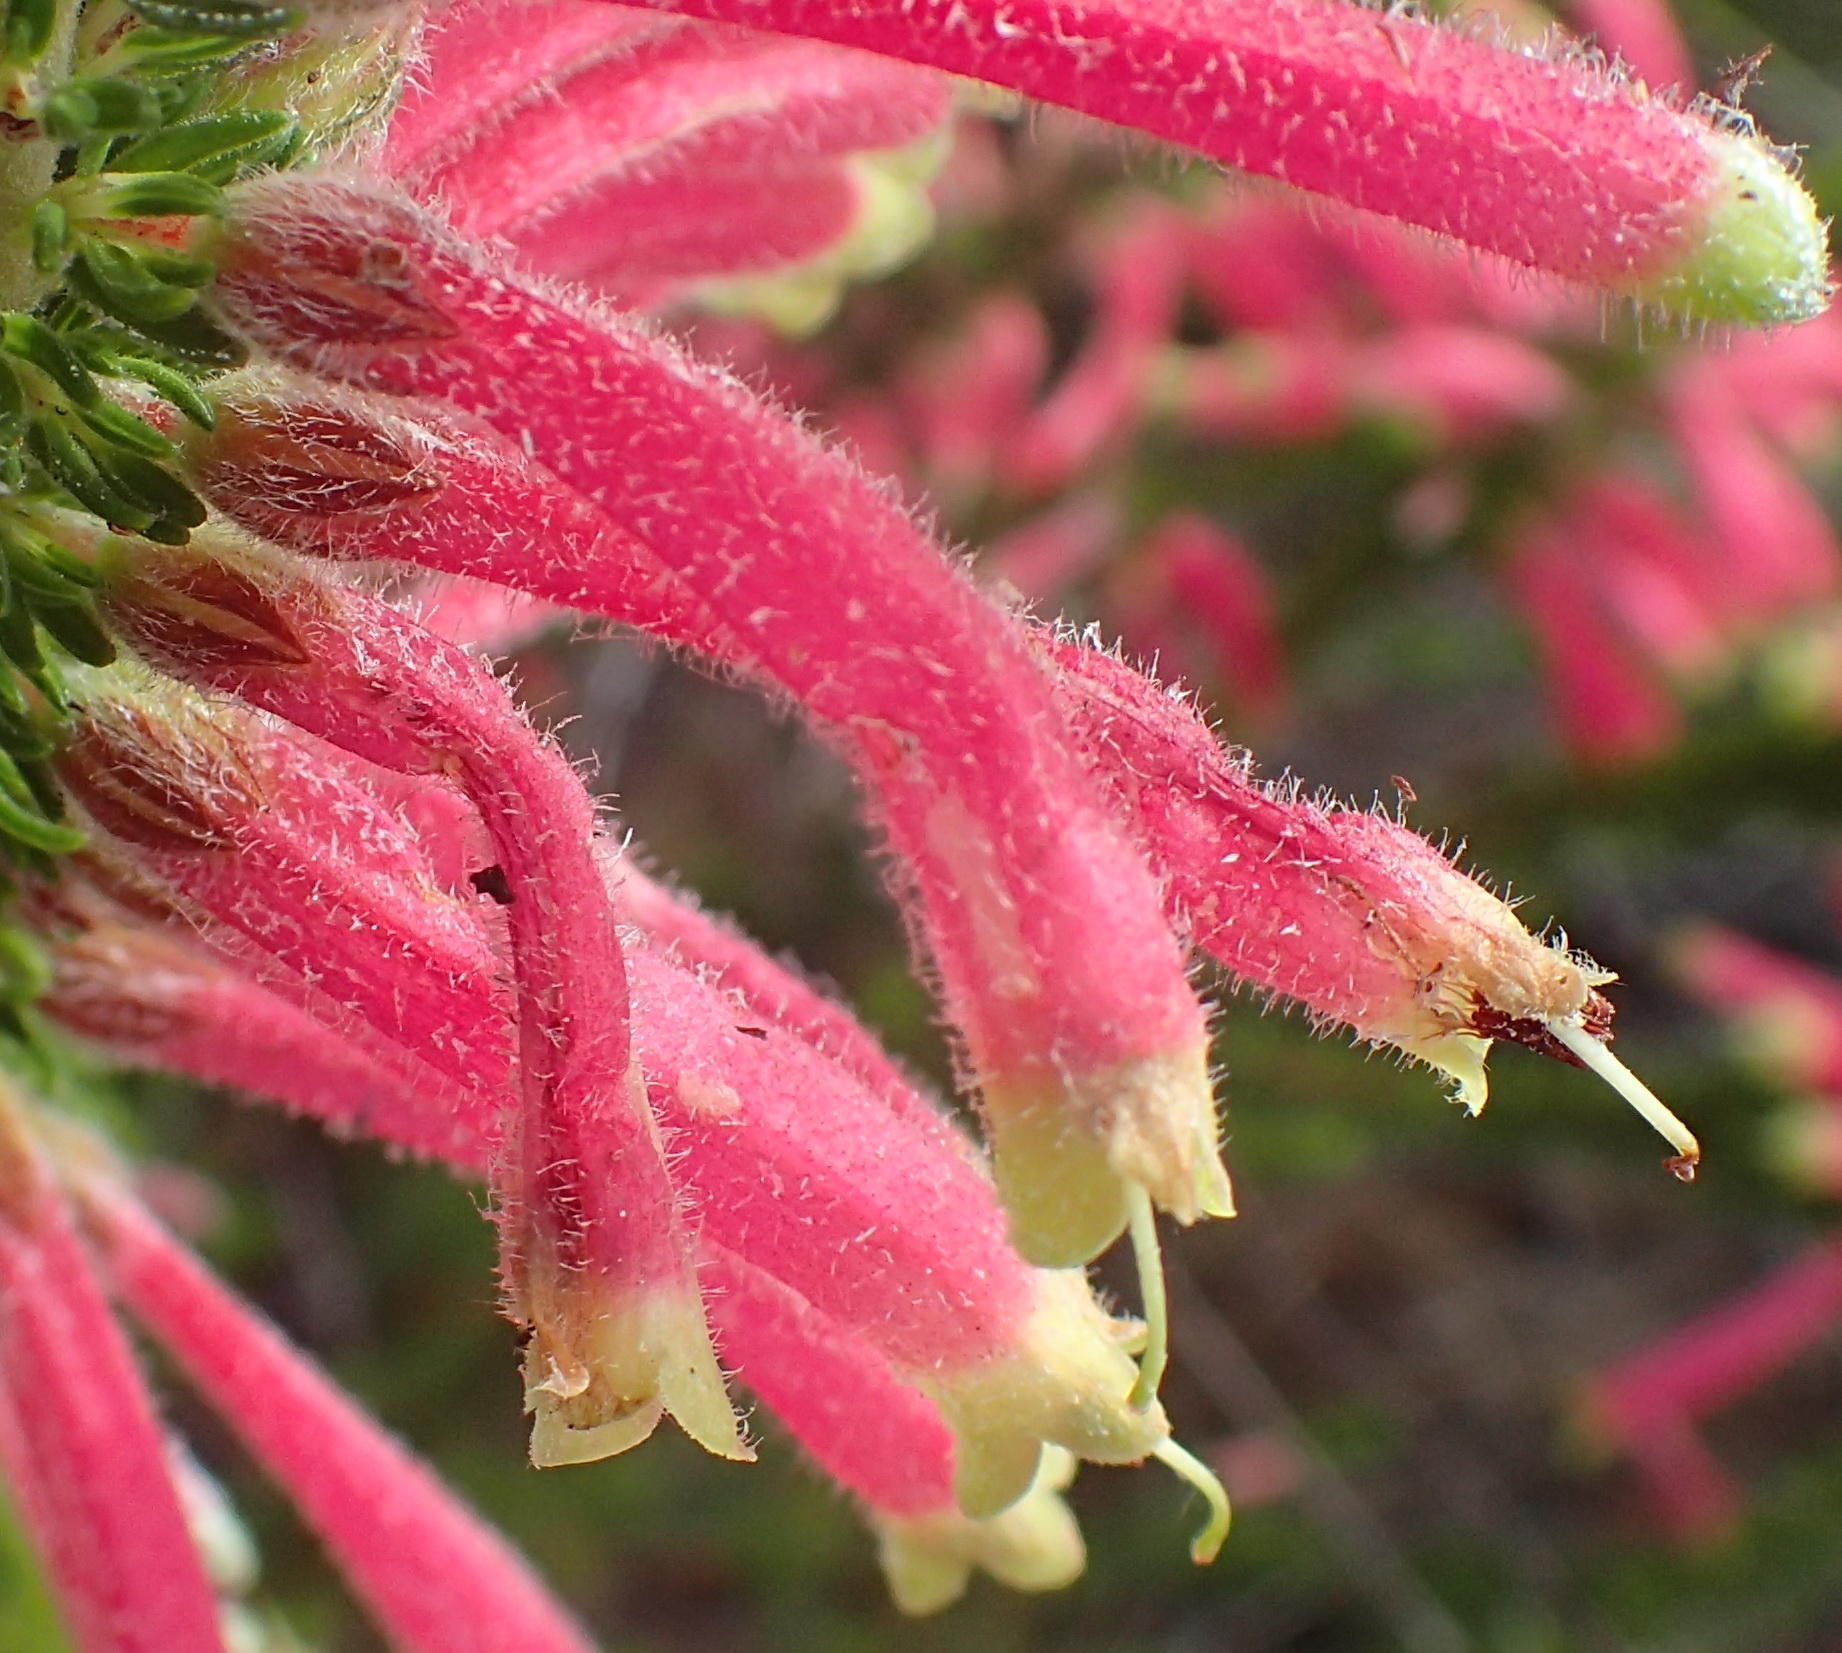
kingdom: Plantae
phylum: Tracheophyta
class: Magnoliopsida
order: Ericales
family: Ericaceae
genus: Erica
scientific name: Erica densifolia
